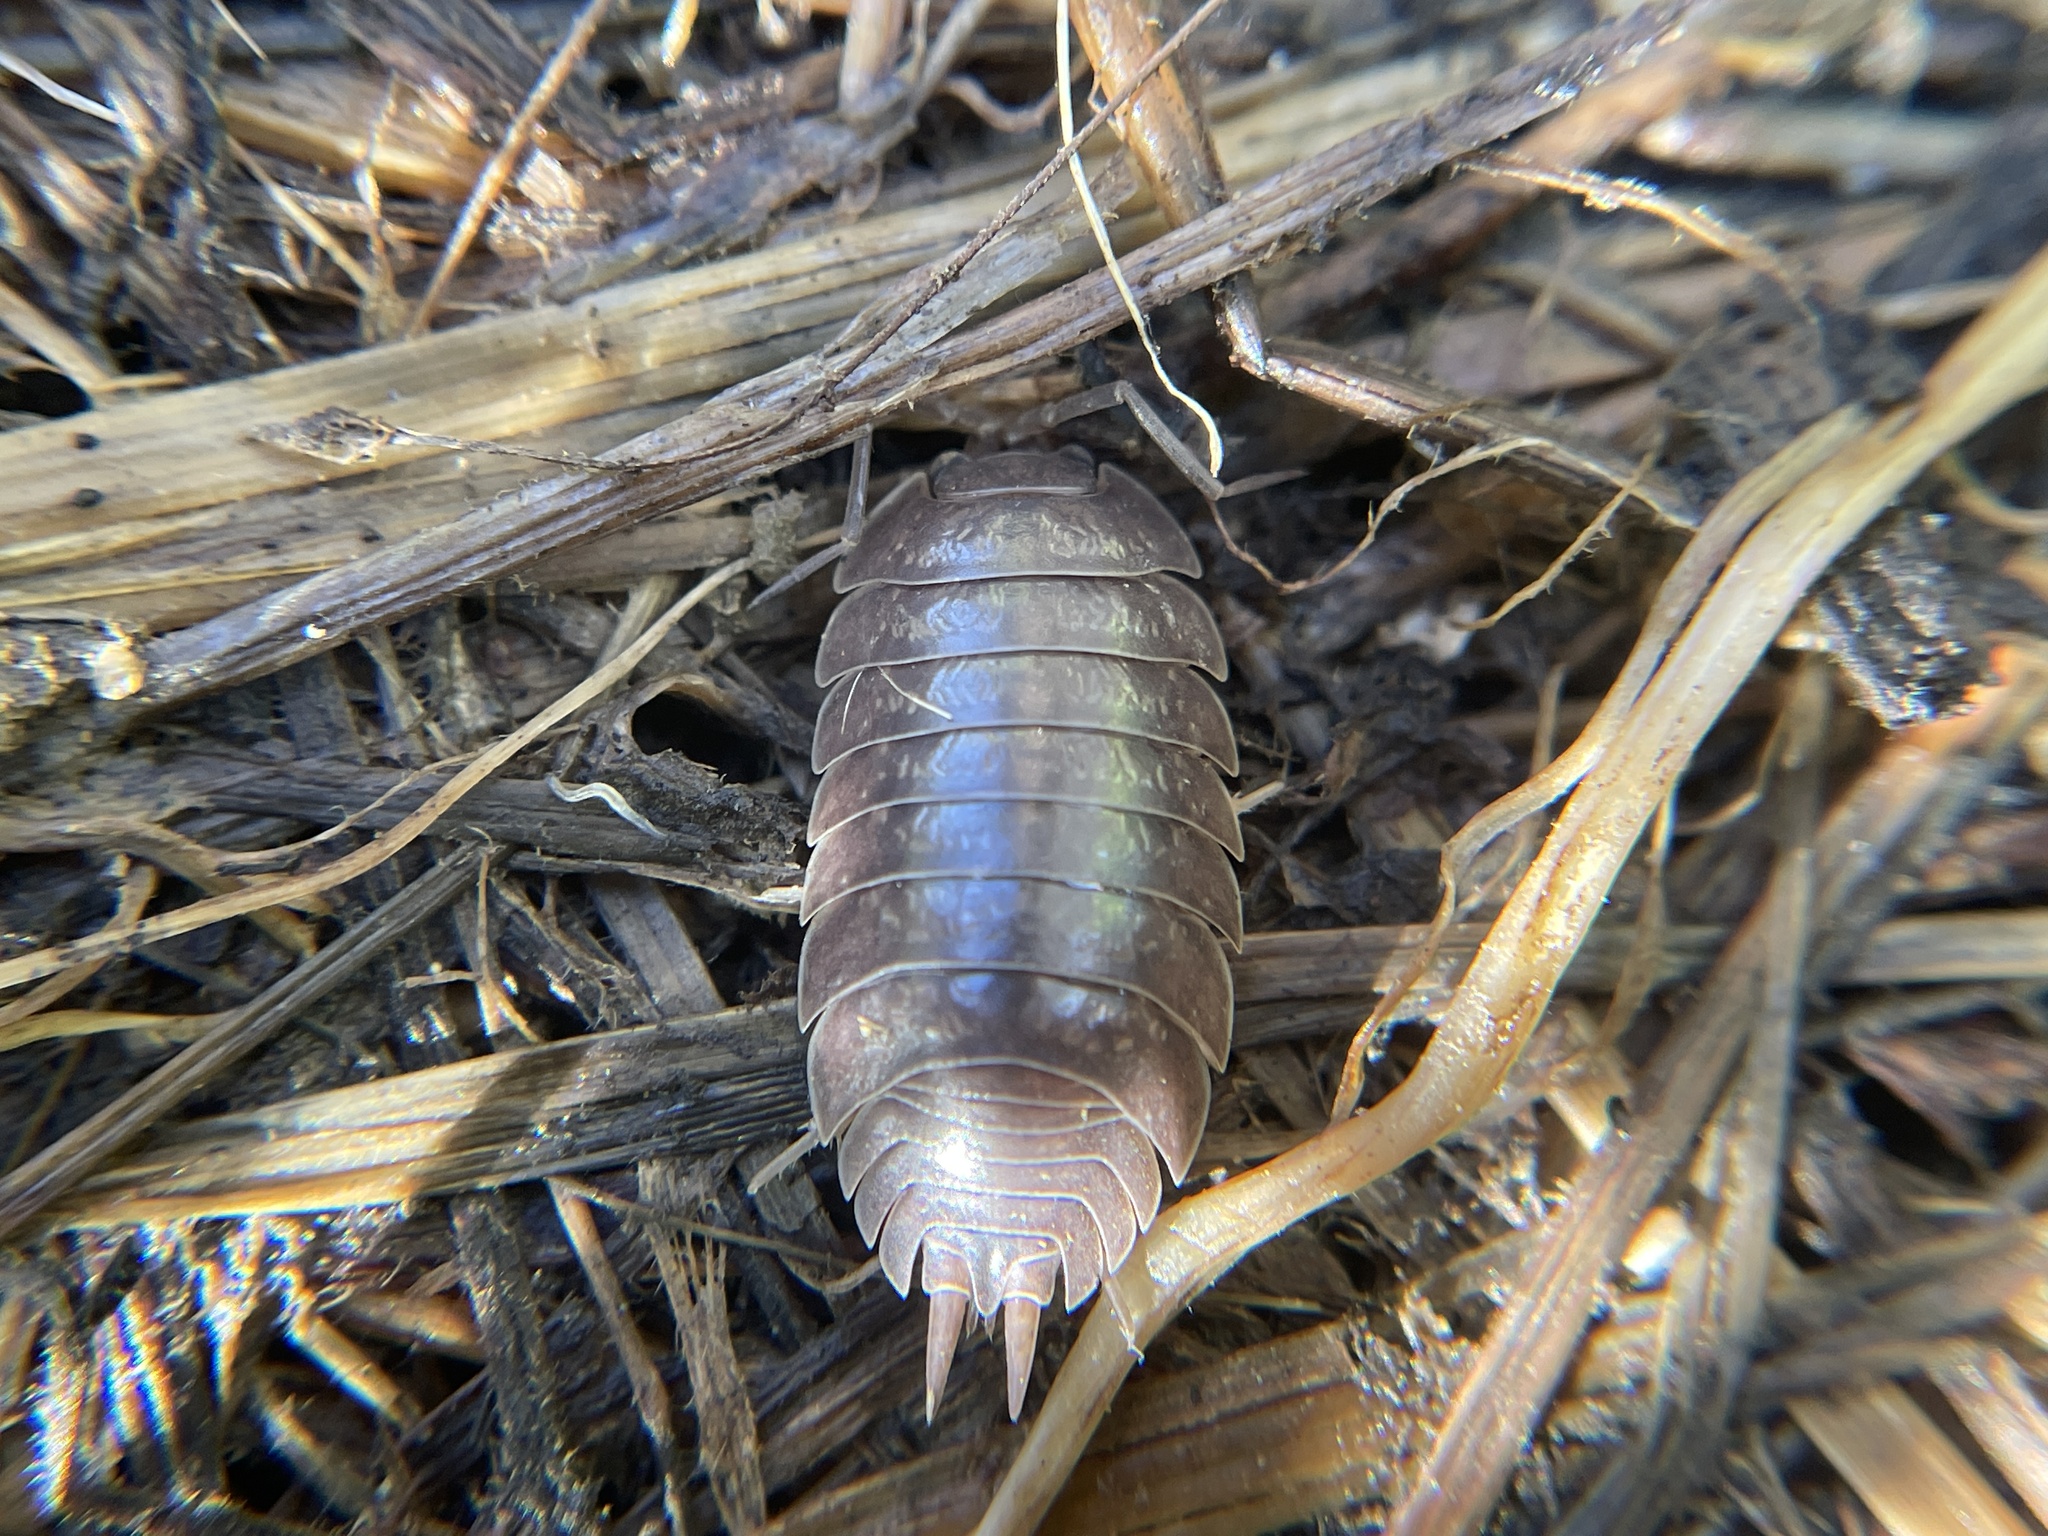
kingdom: Animalia
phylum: Arthropoda
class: Malacostraca
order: Isopoda
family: Porcellionidae
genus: Porcellio
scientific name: Porcellio laevis
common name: Swift woodlouse
